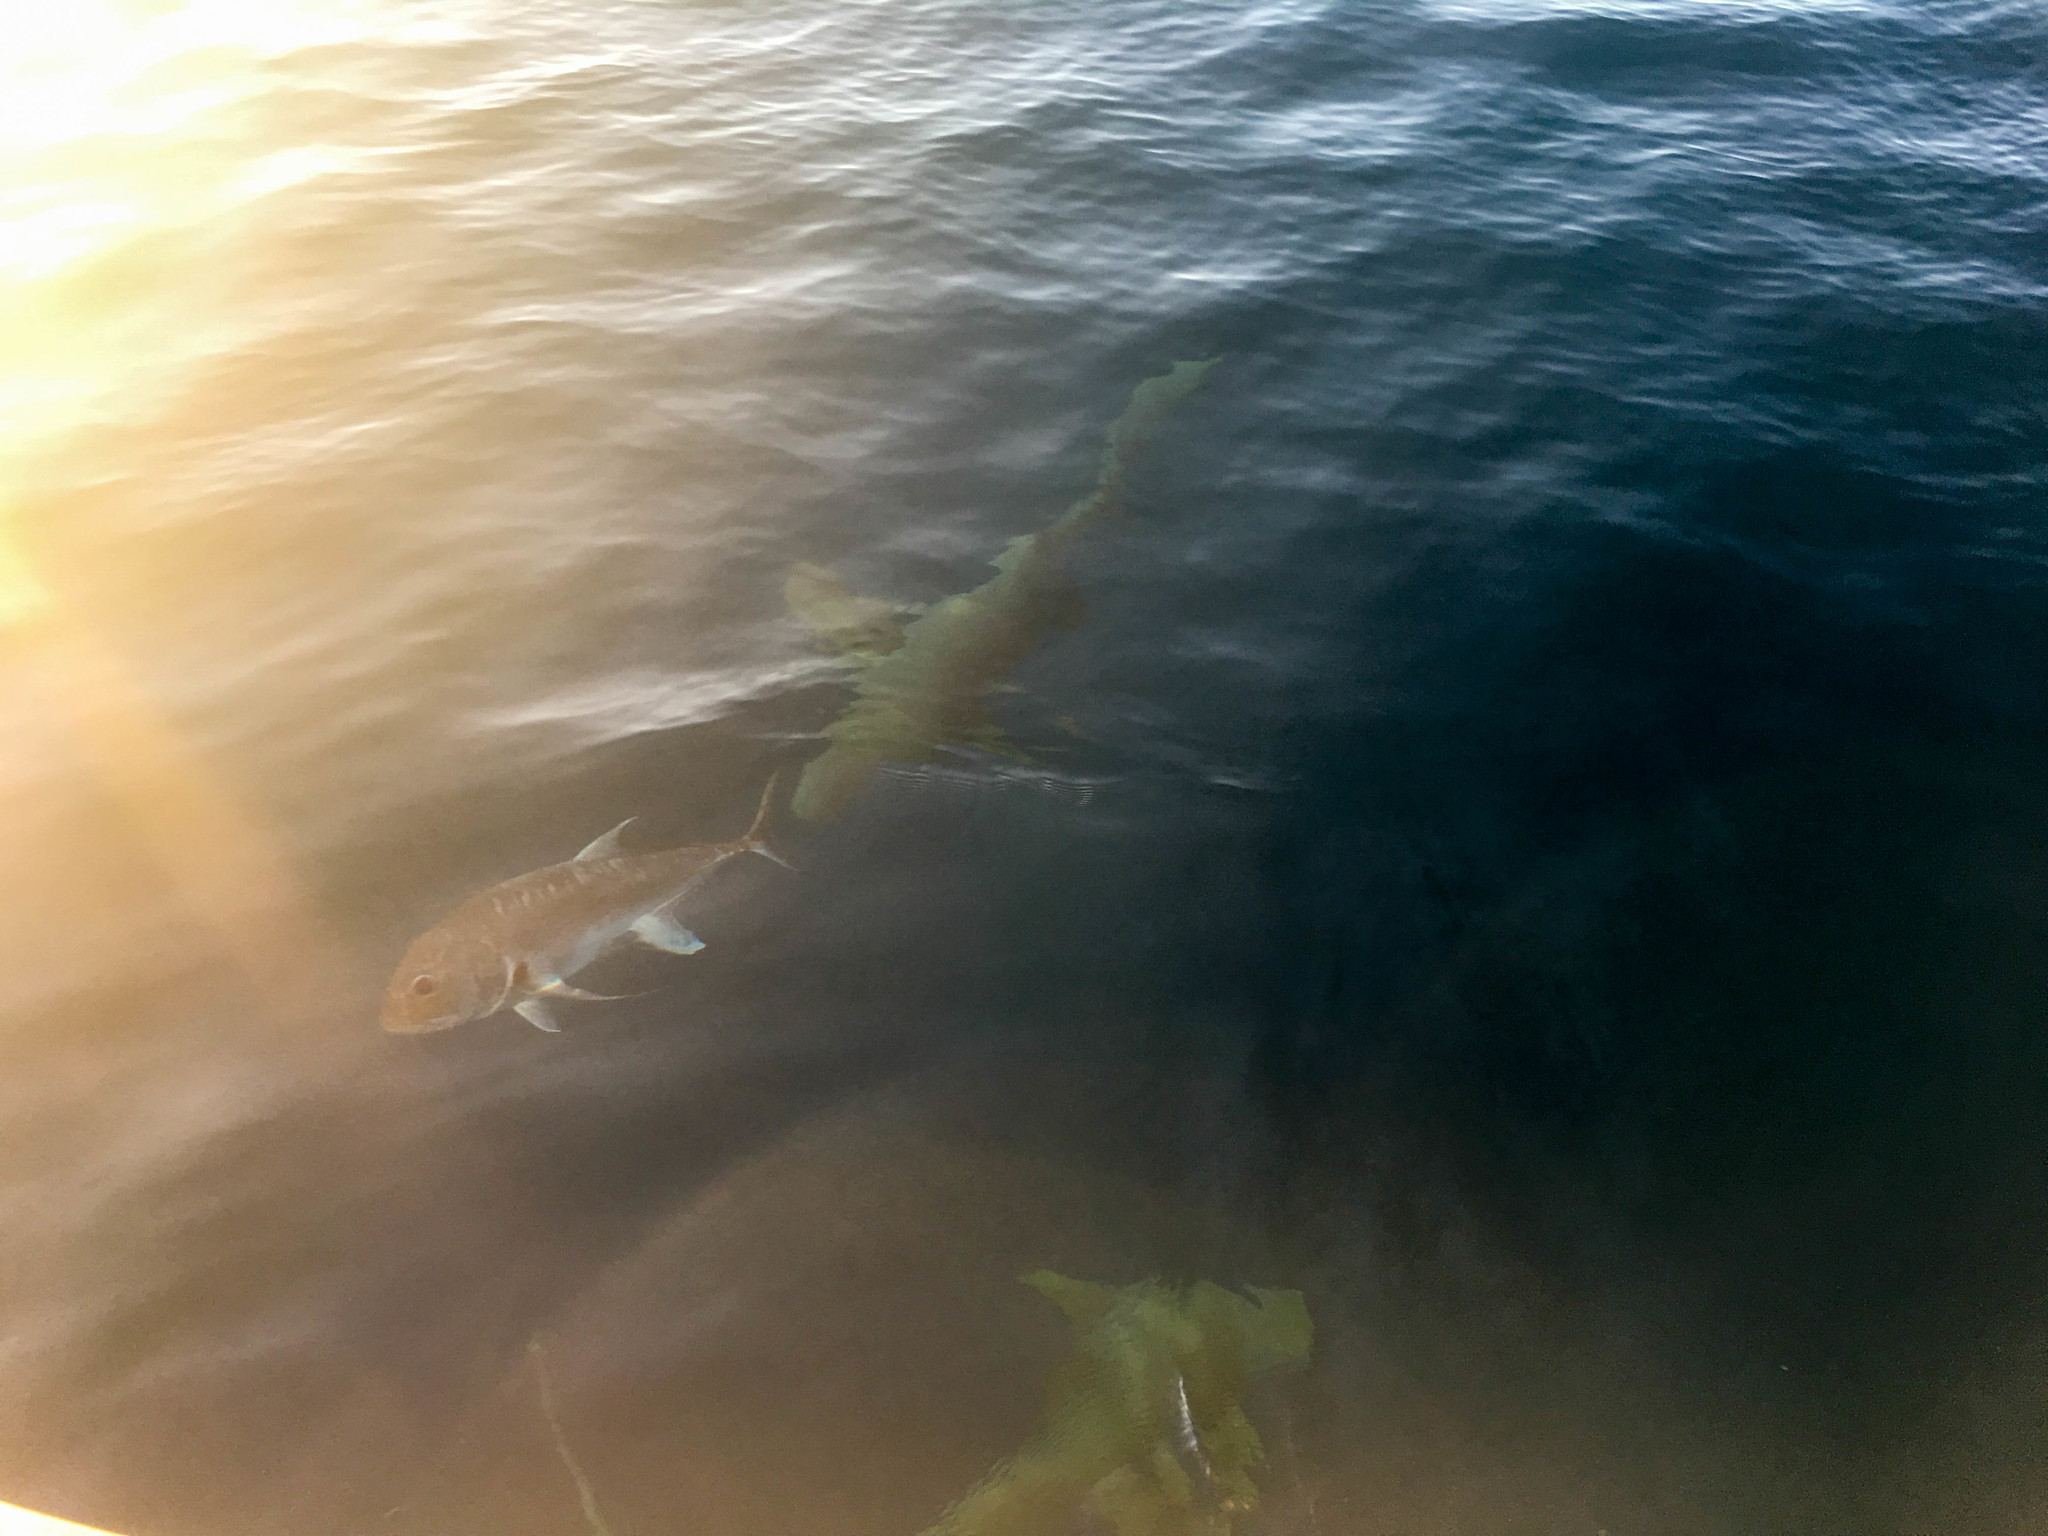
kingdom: Animalia
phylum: Chordata
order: Perciformes
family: Carangidae
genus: Caranx
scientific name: Caranx ignobilis
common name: Giant trevally
